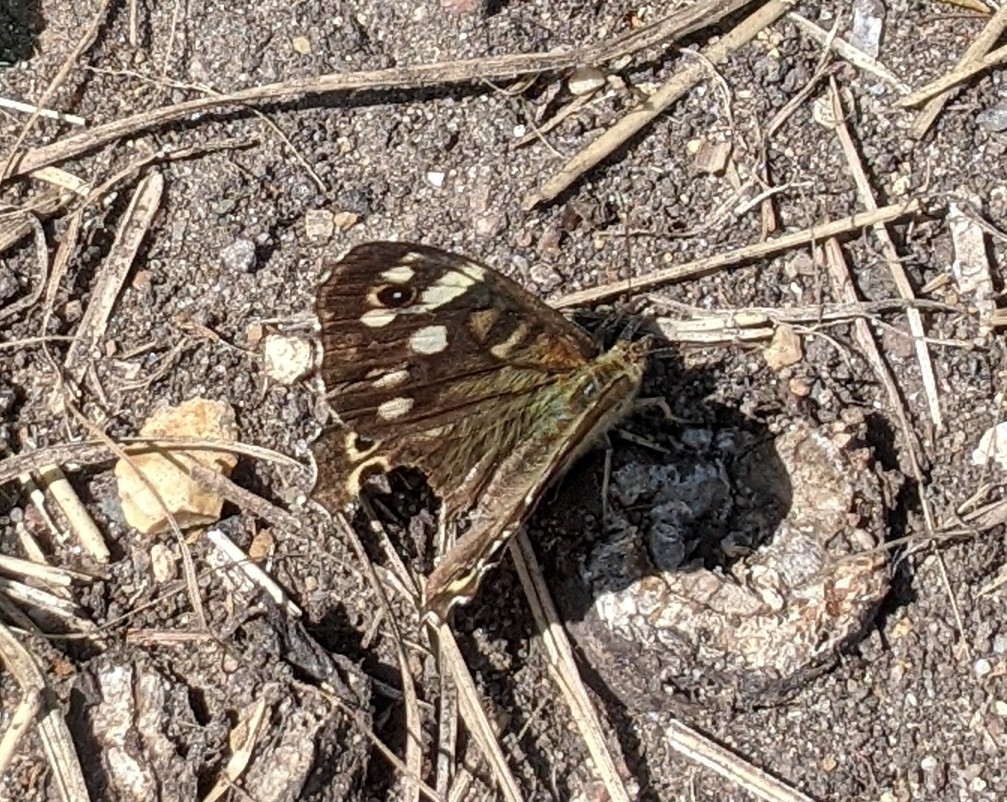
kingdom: Animalia
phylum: Arthropoda
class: Insecta
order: Lepidoptera
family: Nymphalidae
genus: Pararge
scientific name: Pararge aegeria
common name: Speckled wood
